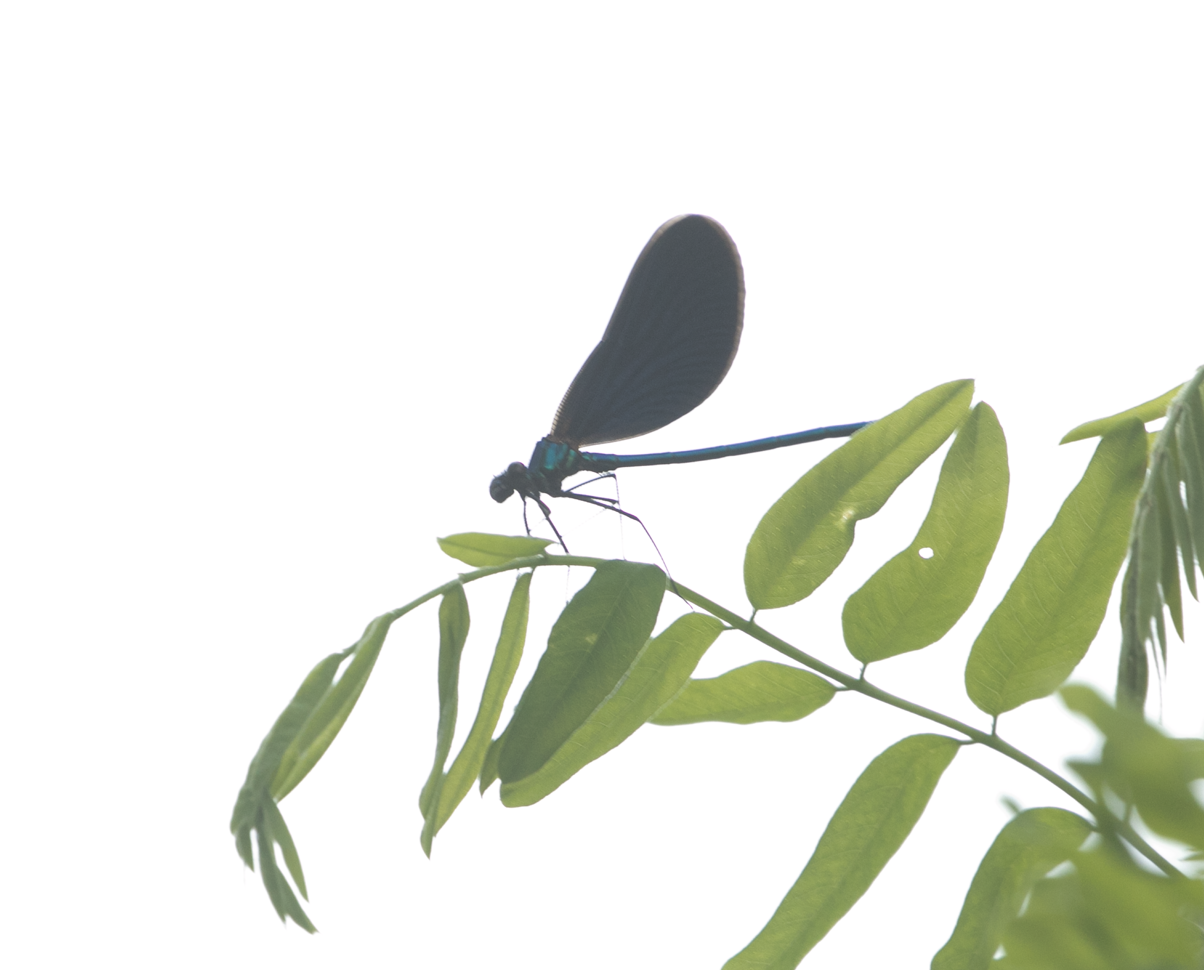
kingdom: Animalia
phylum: Arthropoda
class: Insecta
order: Odonata
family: Calopterygidae
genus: Calopteryx
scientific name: Calopteryx virgo
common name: Beautiful demoiselle
